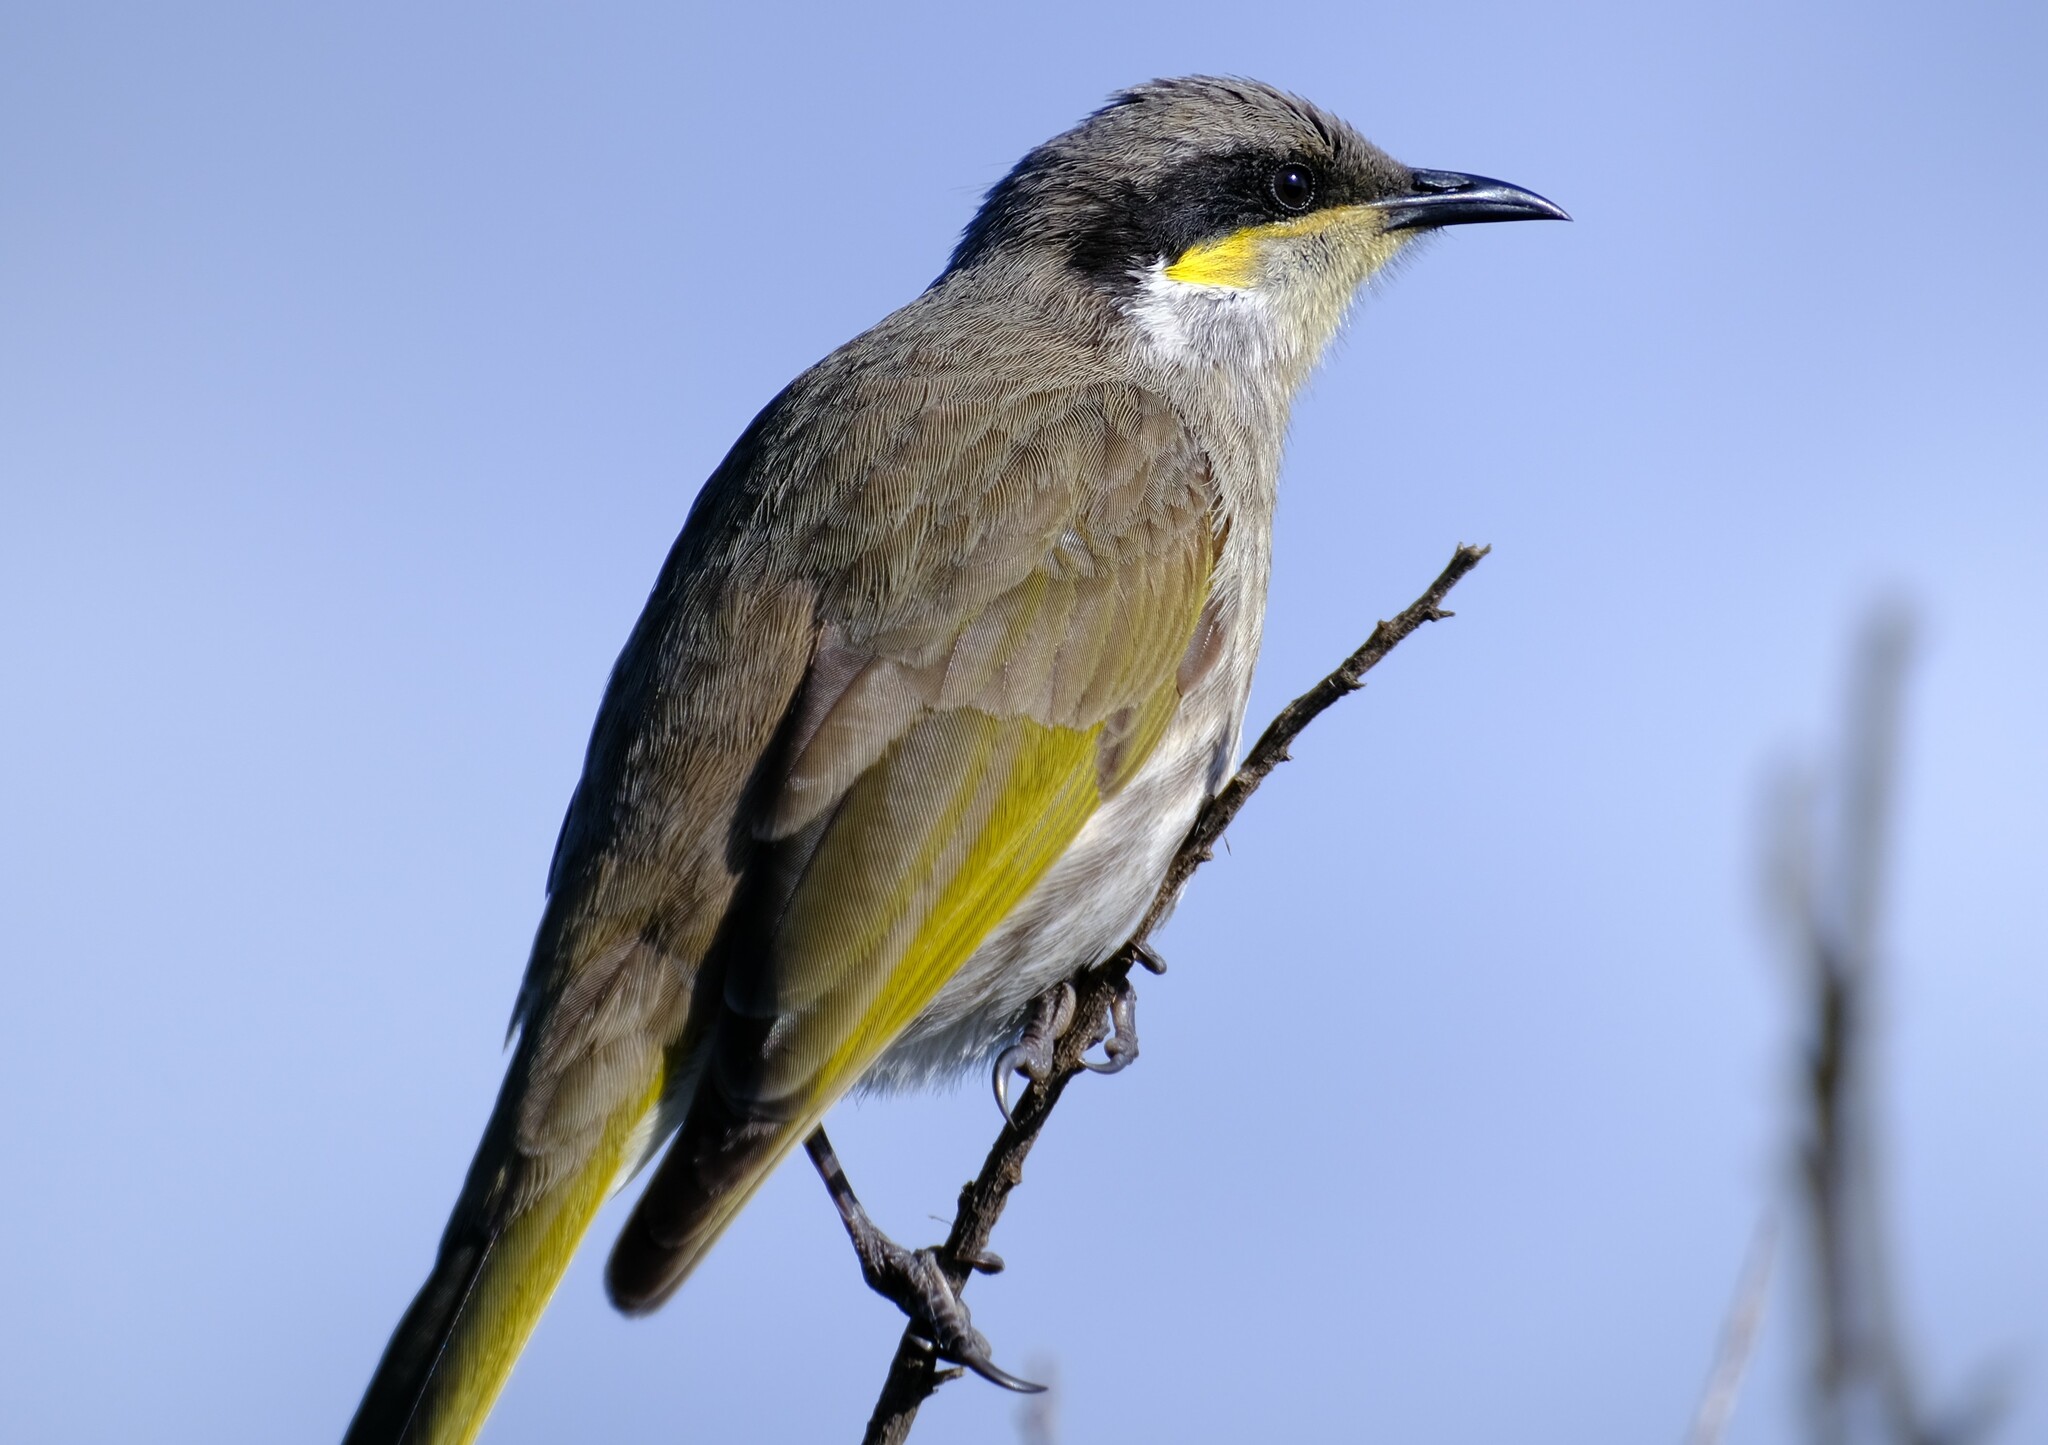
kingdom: Animalia
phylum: Chordata
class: Aves
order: Passeriformes
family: Meliphagidae
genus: Gavicalis
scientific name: Gavicalis virescens
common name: Singing honeyeater
